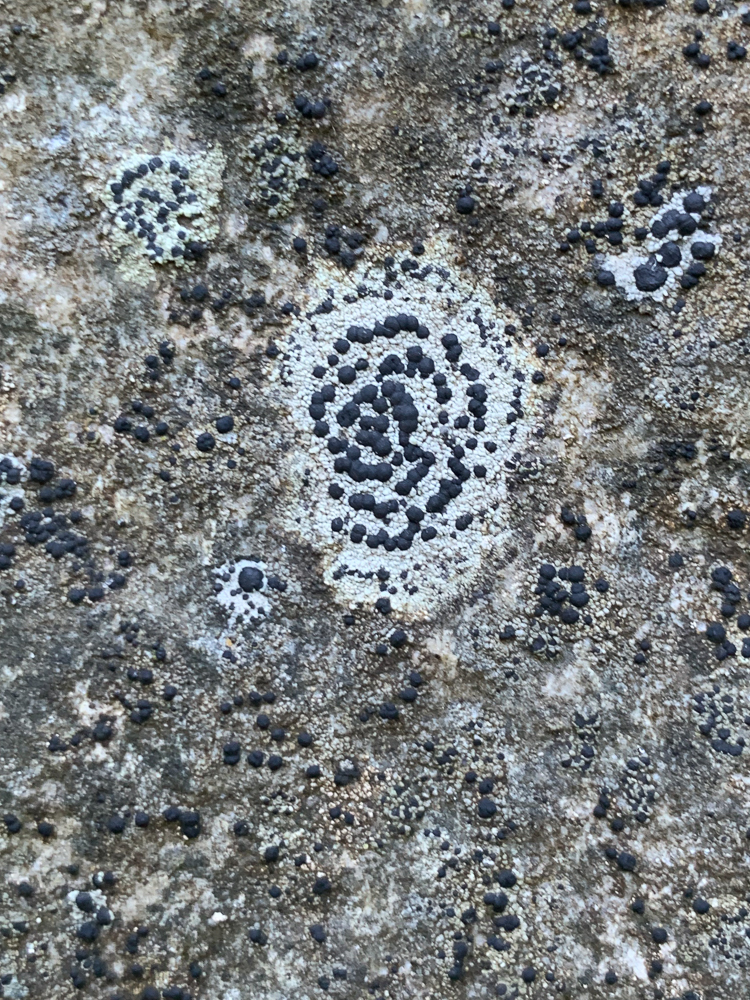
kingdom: Fungi
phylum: Ascomycota
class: Lecanoromycetes
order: Lecideales
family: Lecideaceae
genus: Porpidia
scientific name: Porpidia crustulata
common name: Concentric boulder lichen
